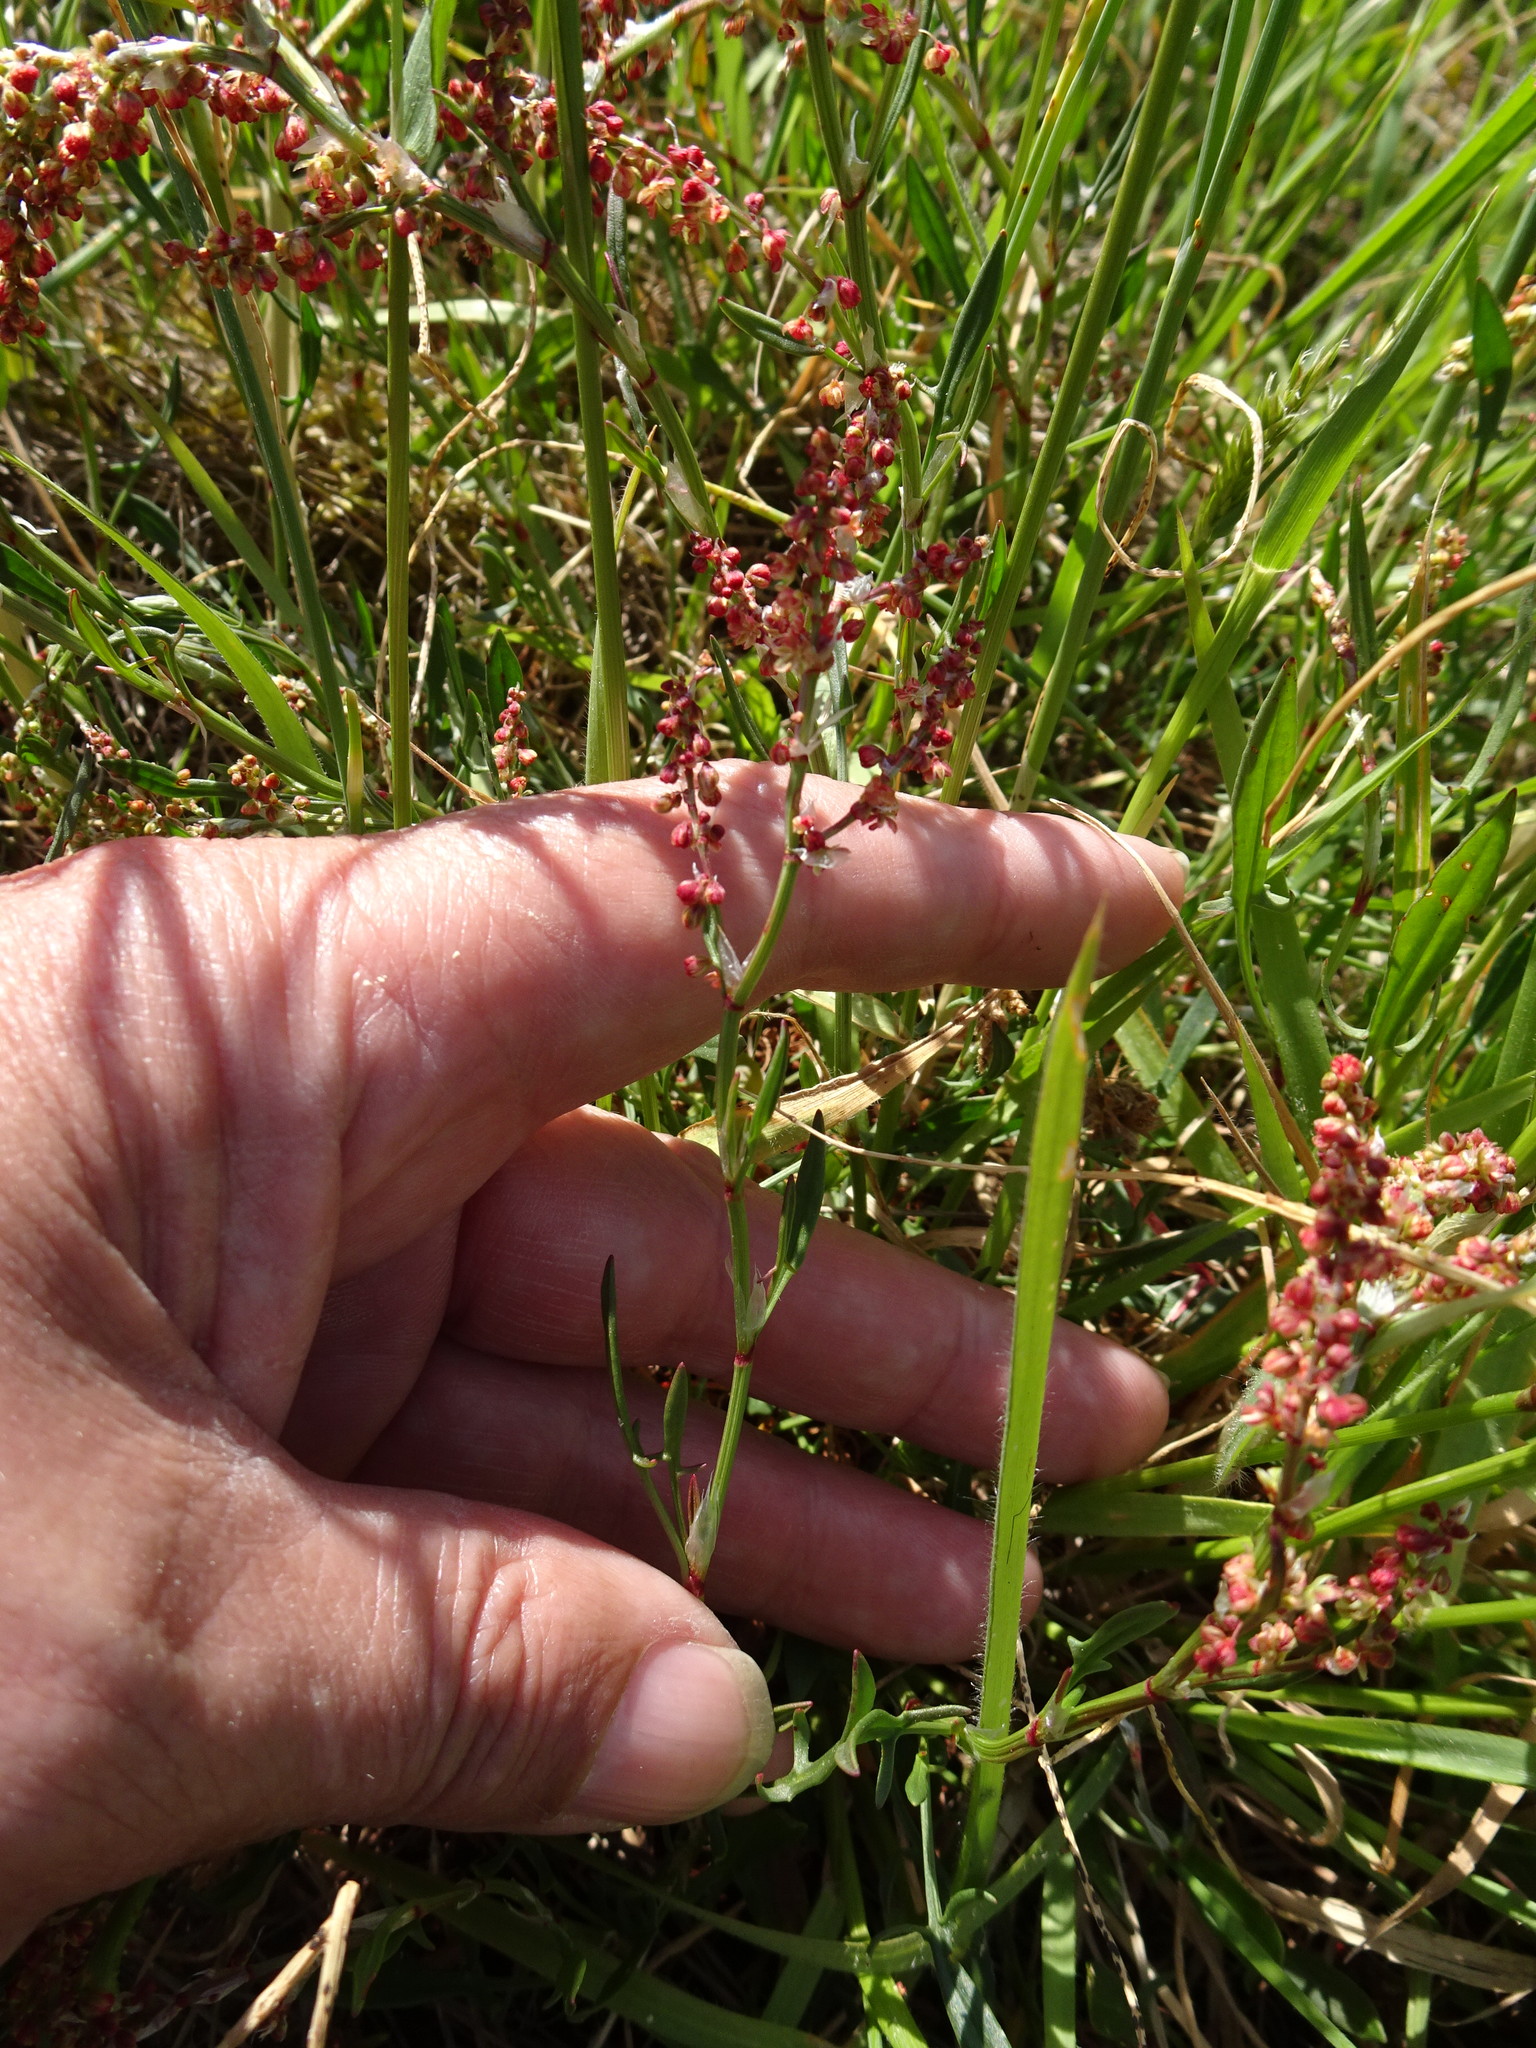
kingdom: Plantae
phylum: Tracheophyta
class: Magnoliopsida
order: Caryophyllales
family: Polygonaceae
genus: Rumex
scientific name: Rumex acetosella
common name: Common sheep sorrel
